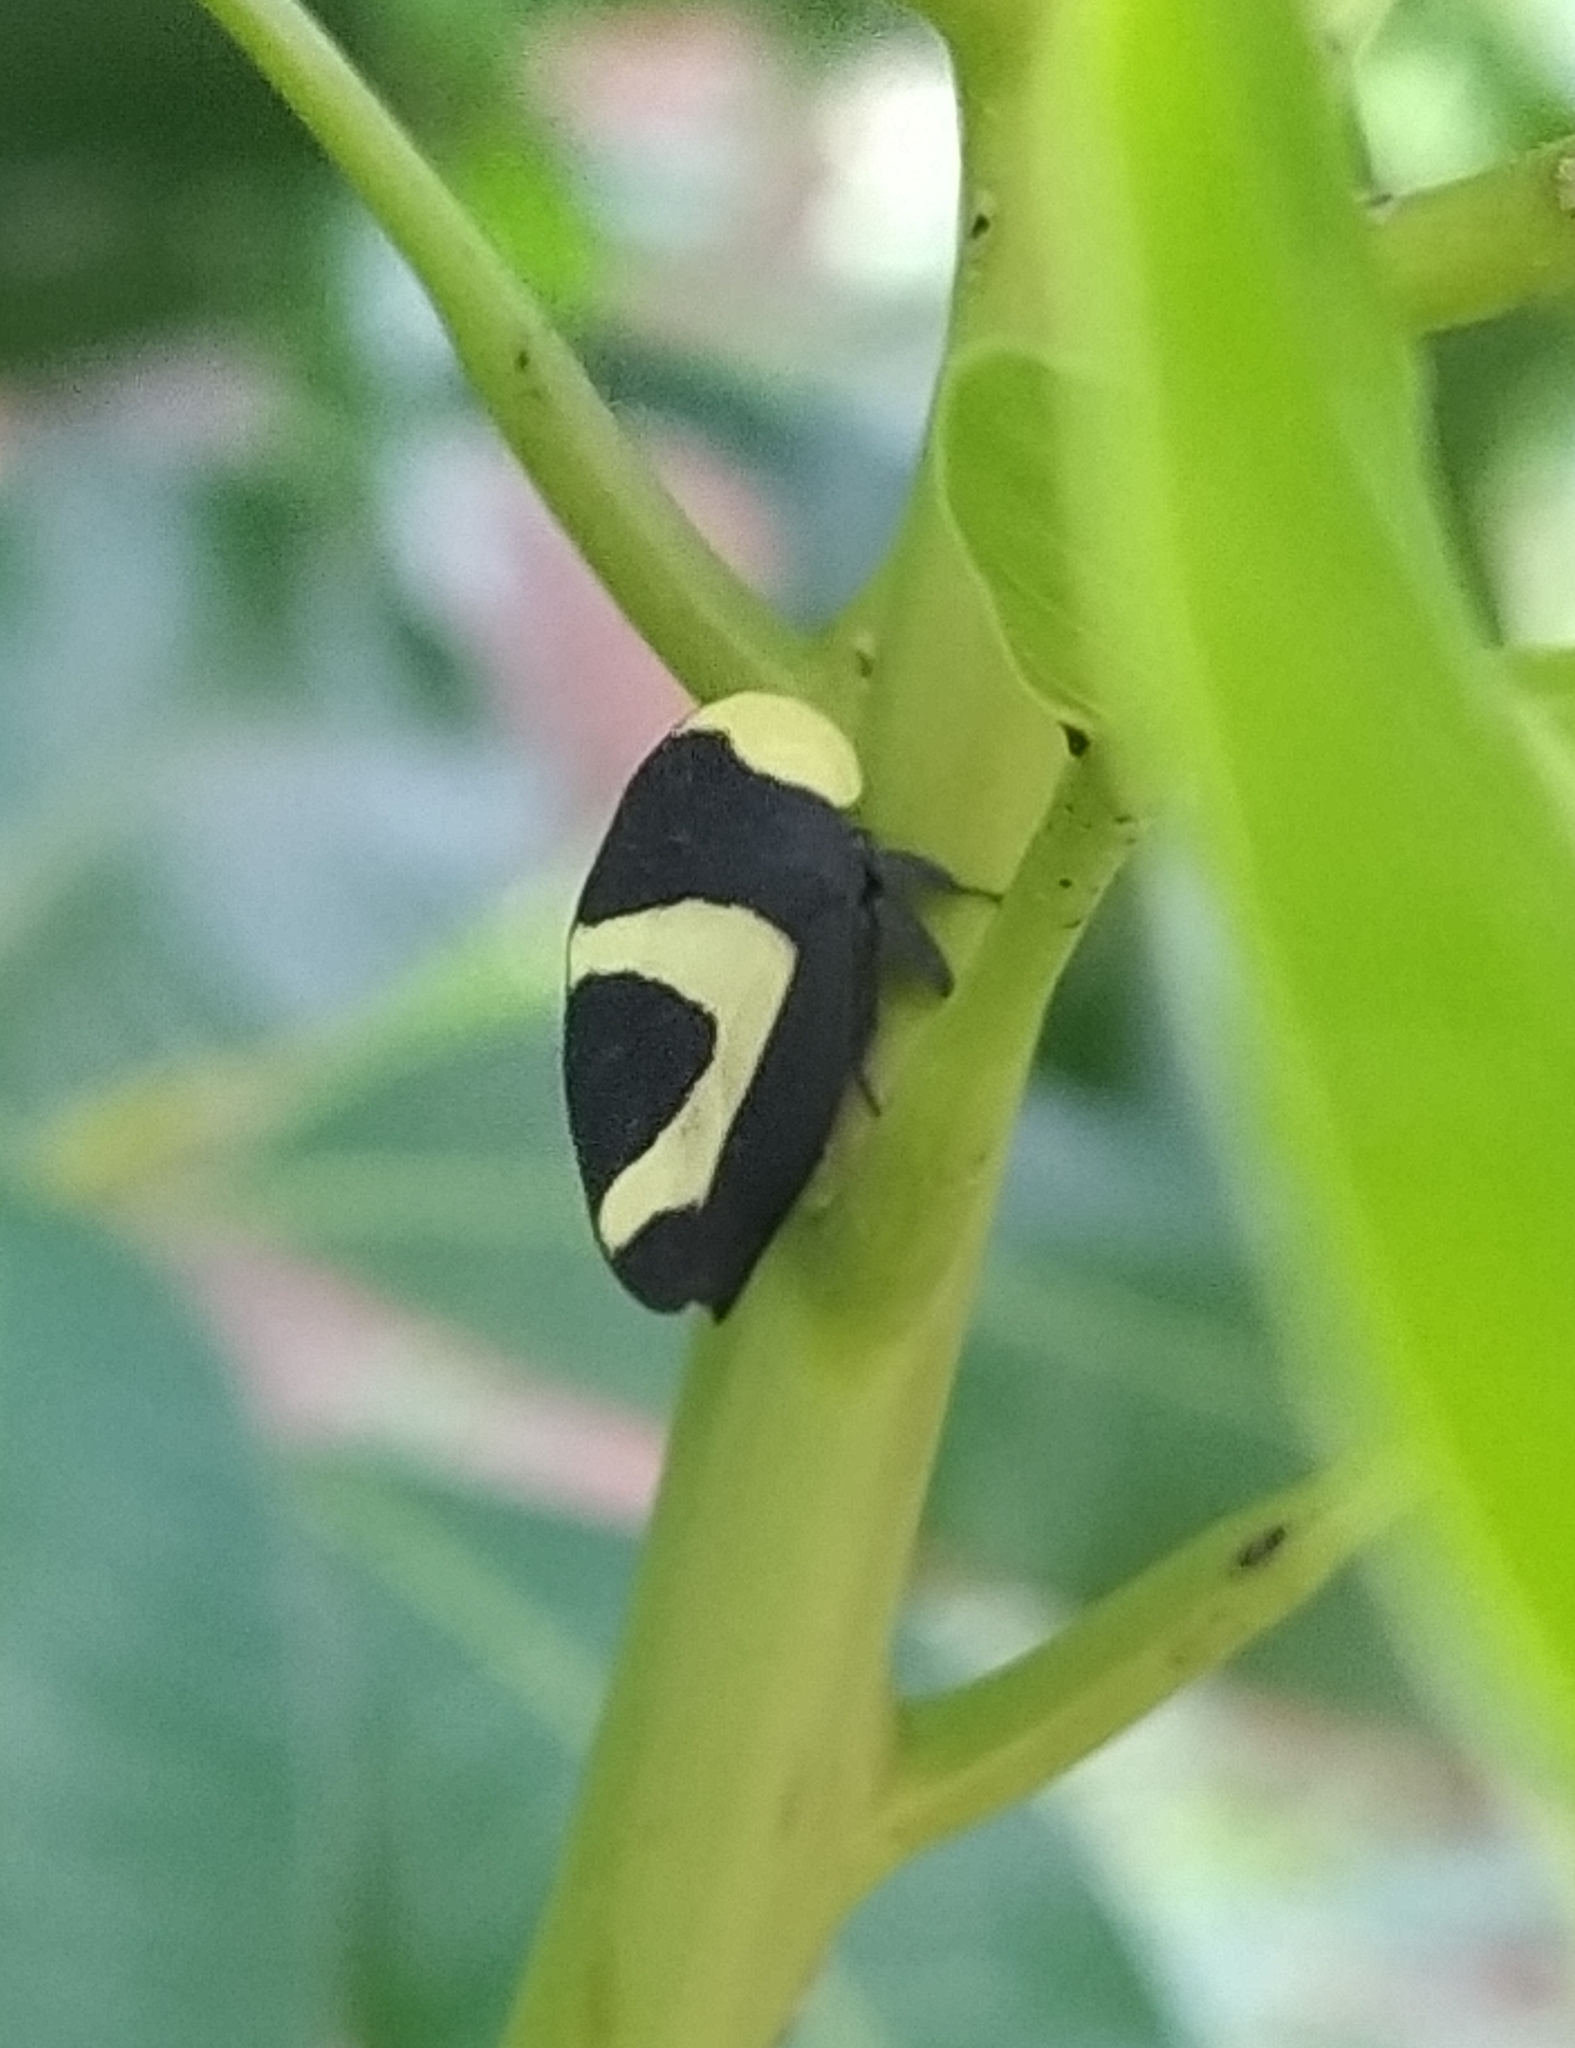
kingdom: Animalia
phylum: Arthropoda
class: Insecta
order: Hemiptera
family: Membracidae
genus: Membracis
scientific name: Membracis celsa
